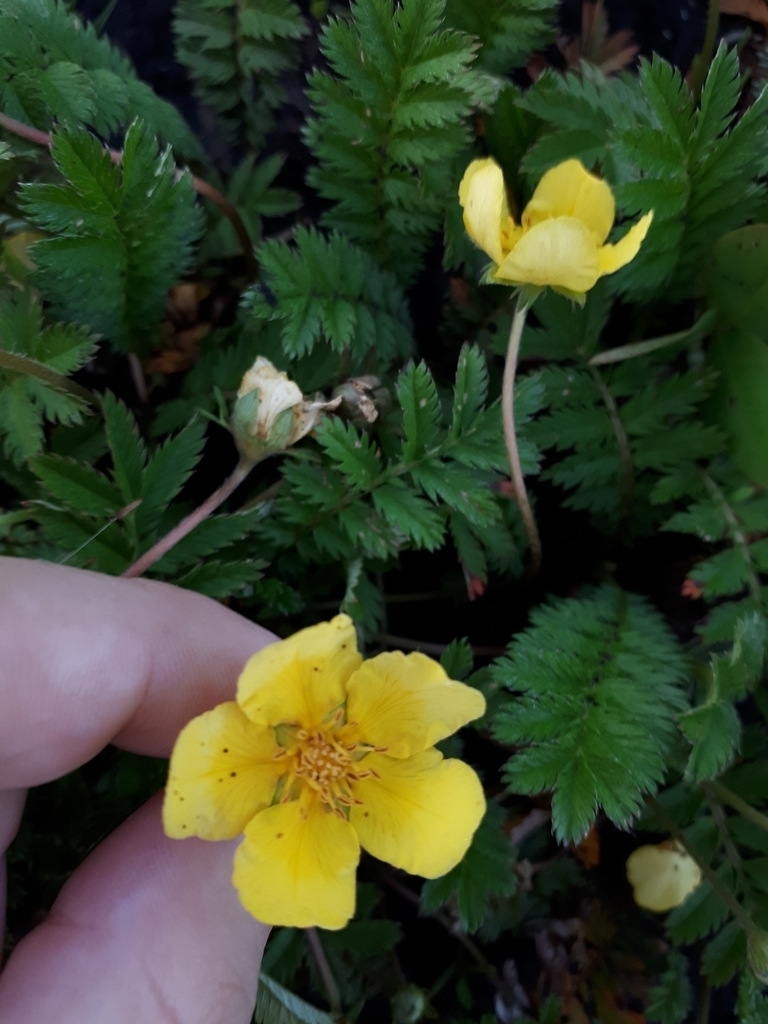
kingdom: Plantae
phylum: Tracheophyta
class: Magnoliopsida
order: Rosales
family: Rosaceae
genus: Argentina
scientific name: Argentina anserina
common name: Common silverweed
